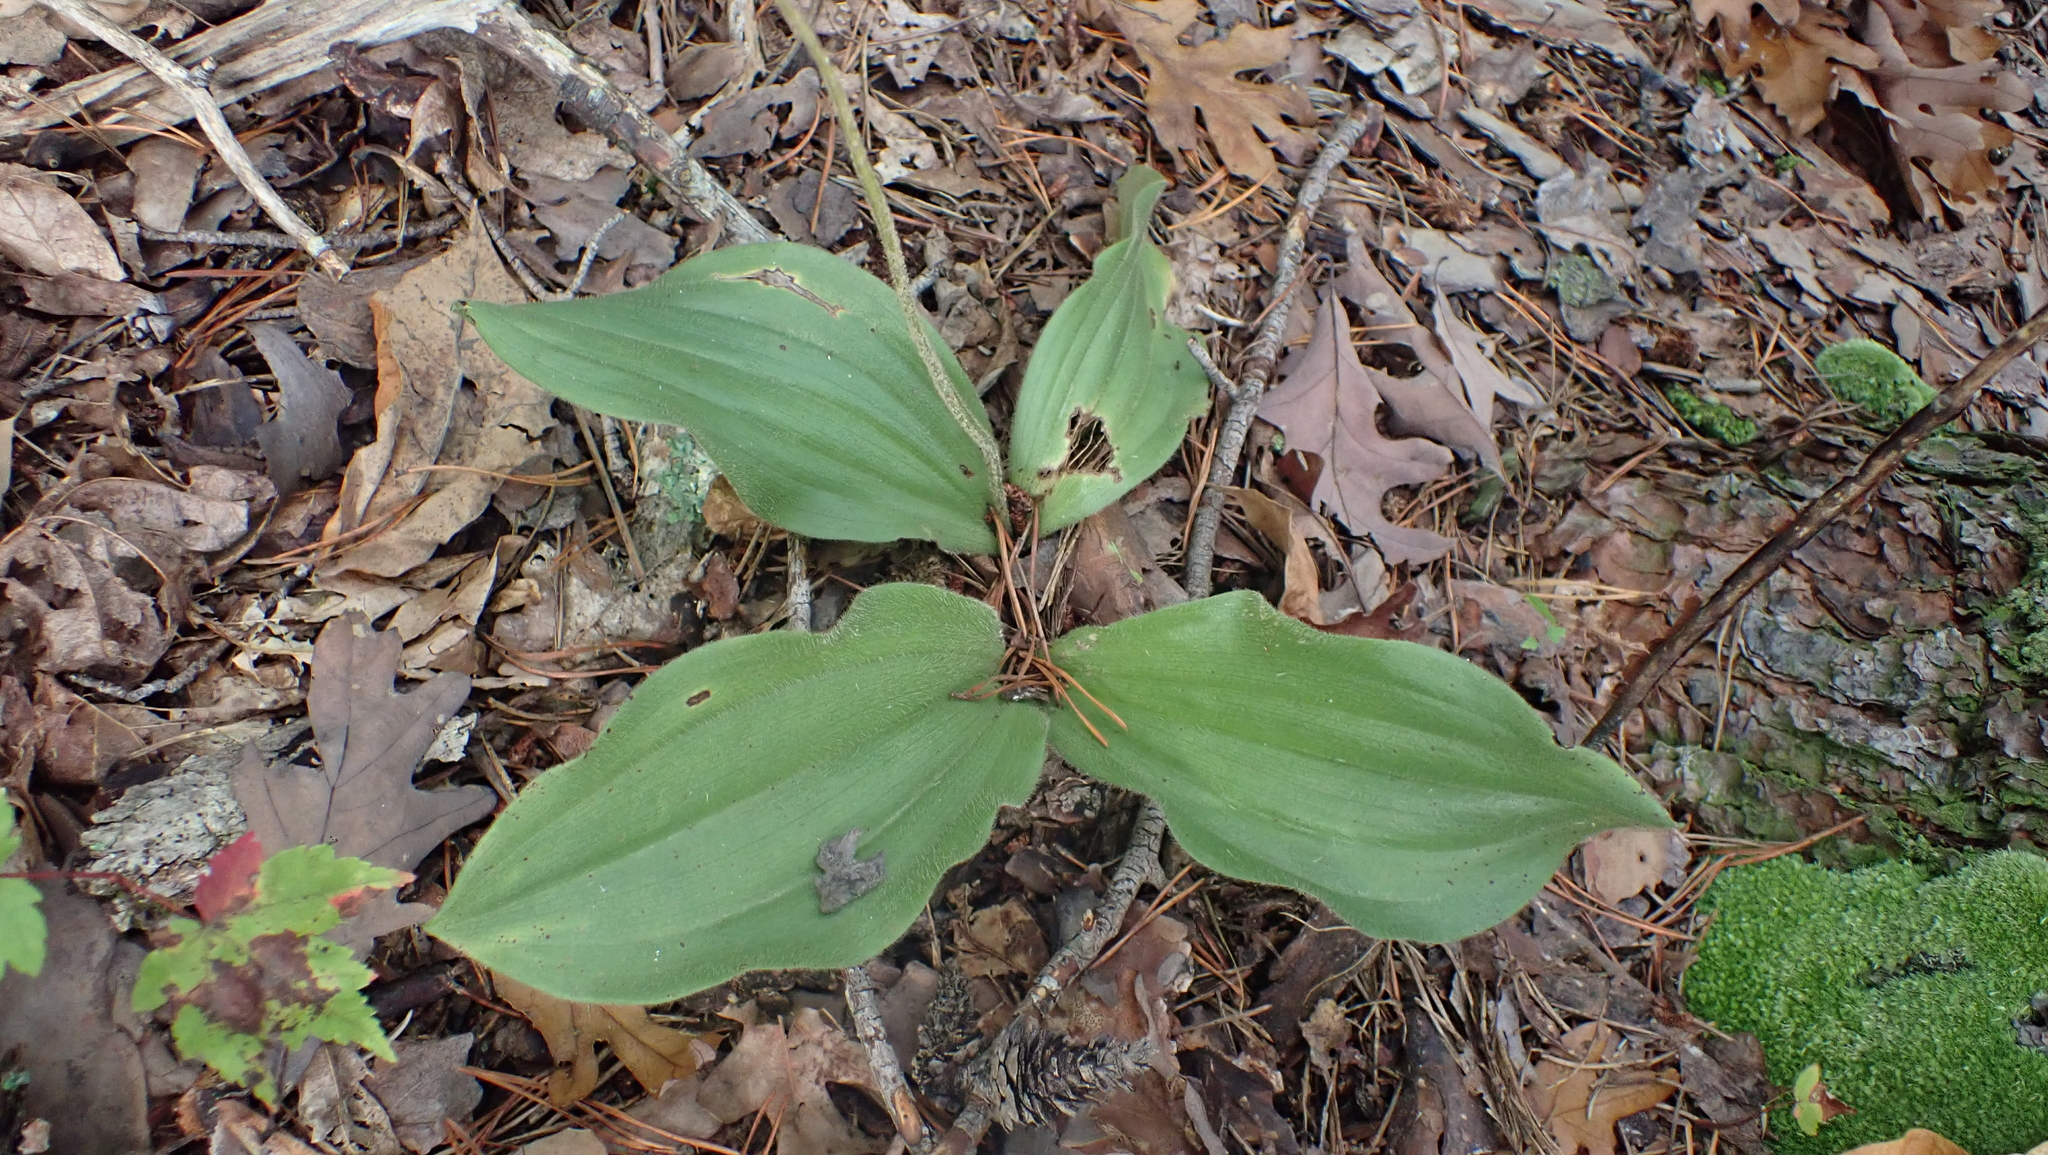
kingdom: Plantae
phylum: Tracheophyta
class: Liliopsida
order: Asparagales
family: Orchidaceae
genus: Cypripedium
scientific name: Cypripedium acaule
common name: Pink lady's-slipper
